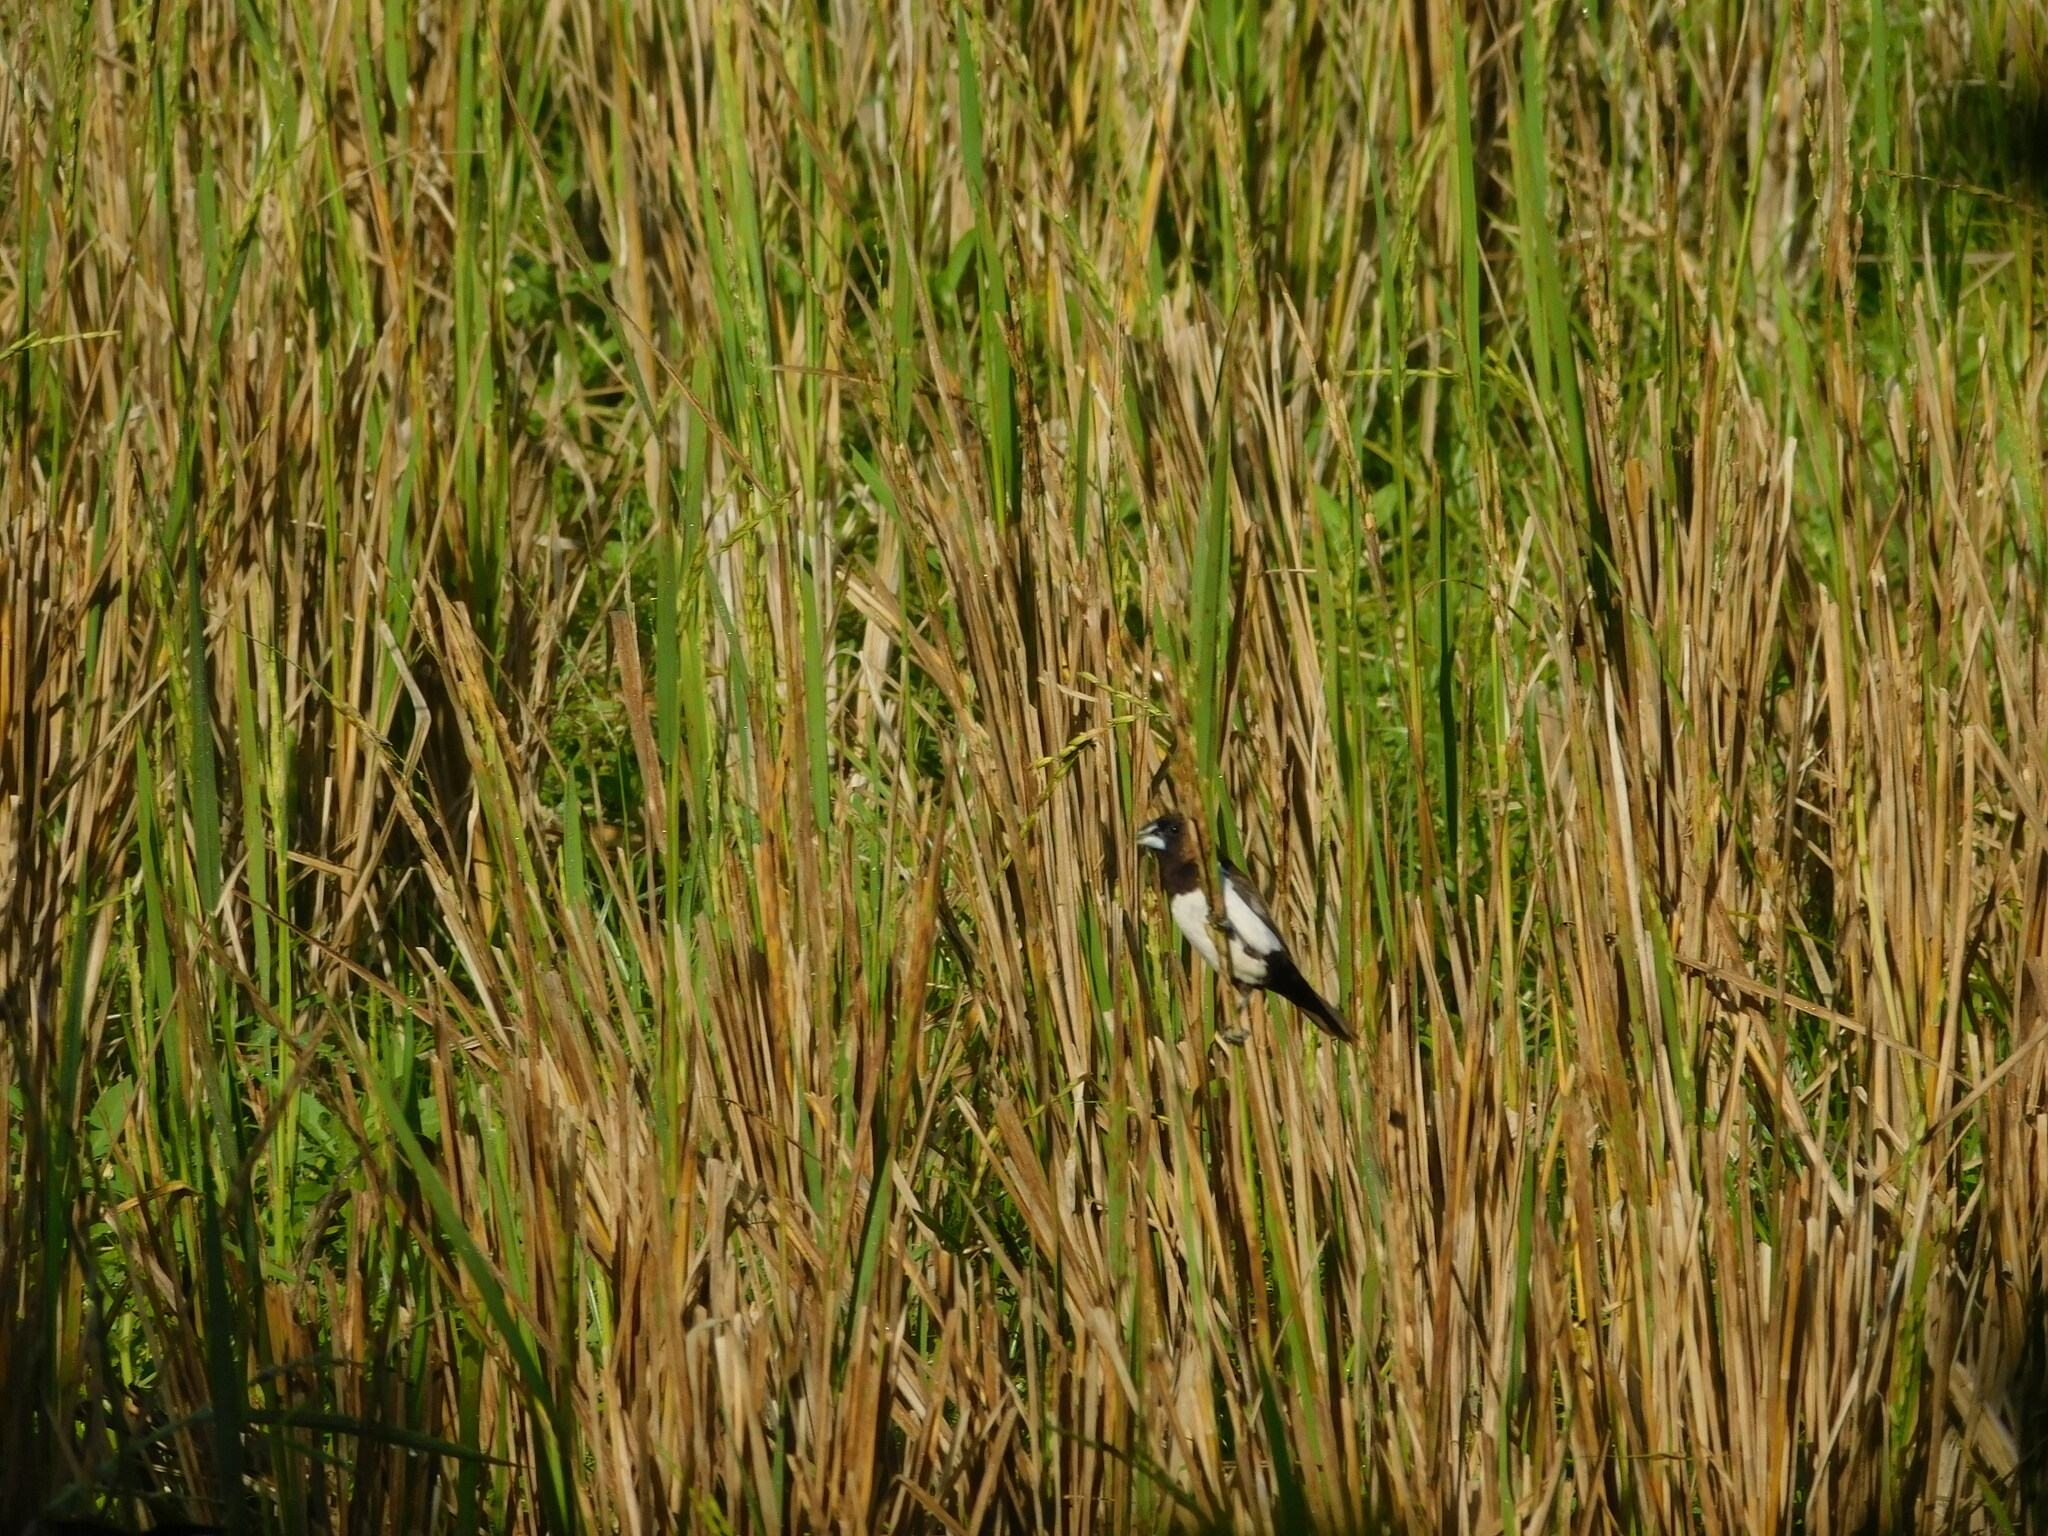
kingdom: Animalia
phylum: Chordata
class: Aves
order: Passeriformes
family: Estrildidae
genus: Lonchura
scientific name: Lonchura leucogastroides
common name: Javan munia
